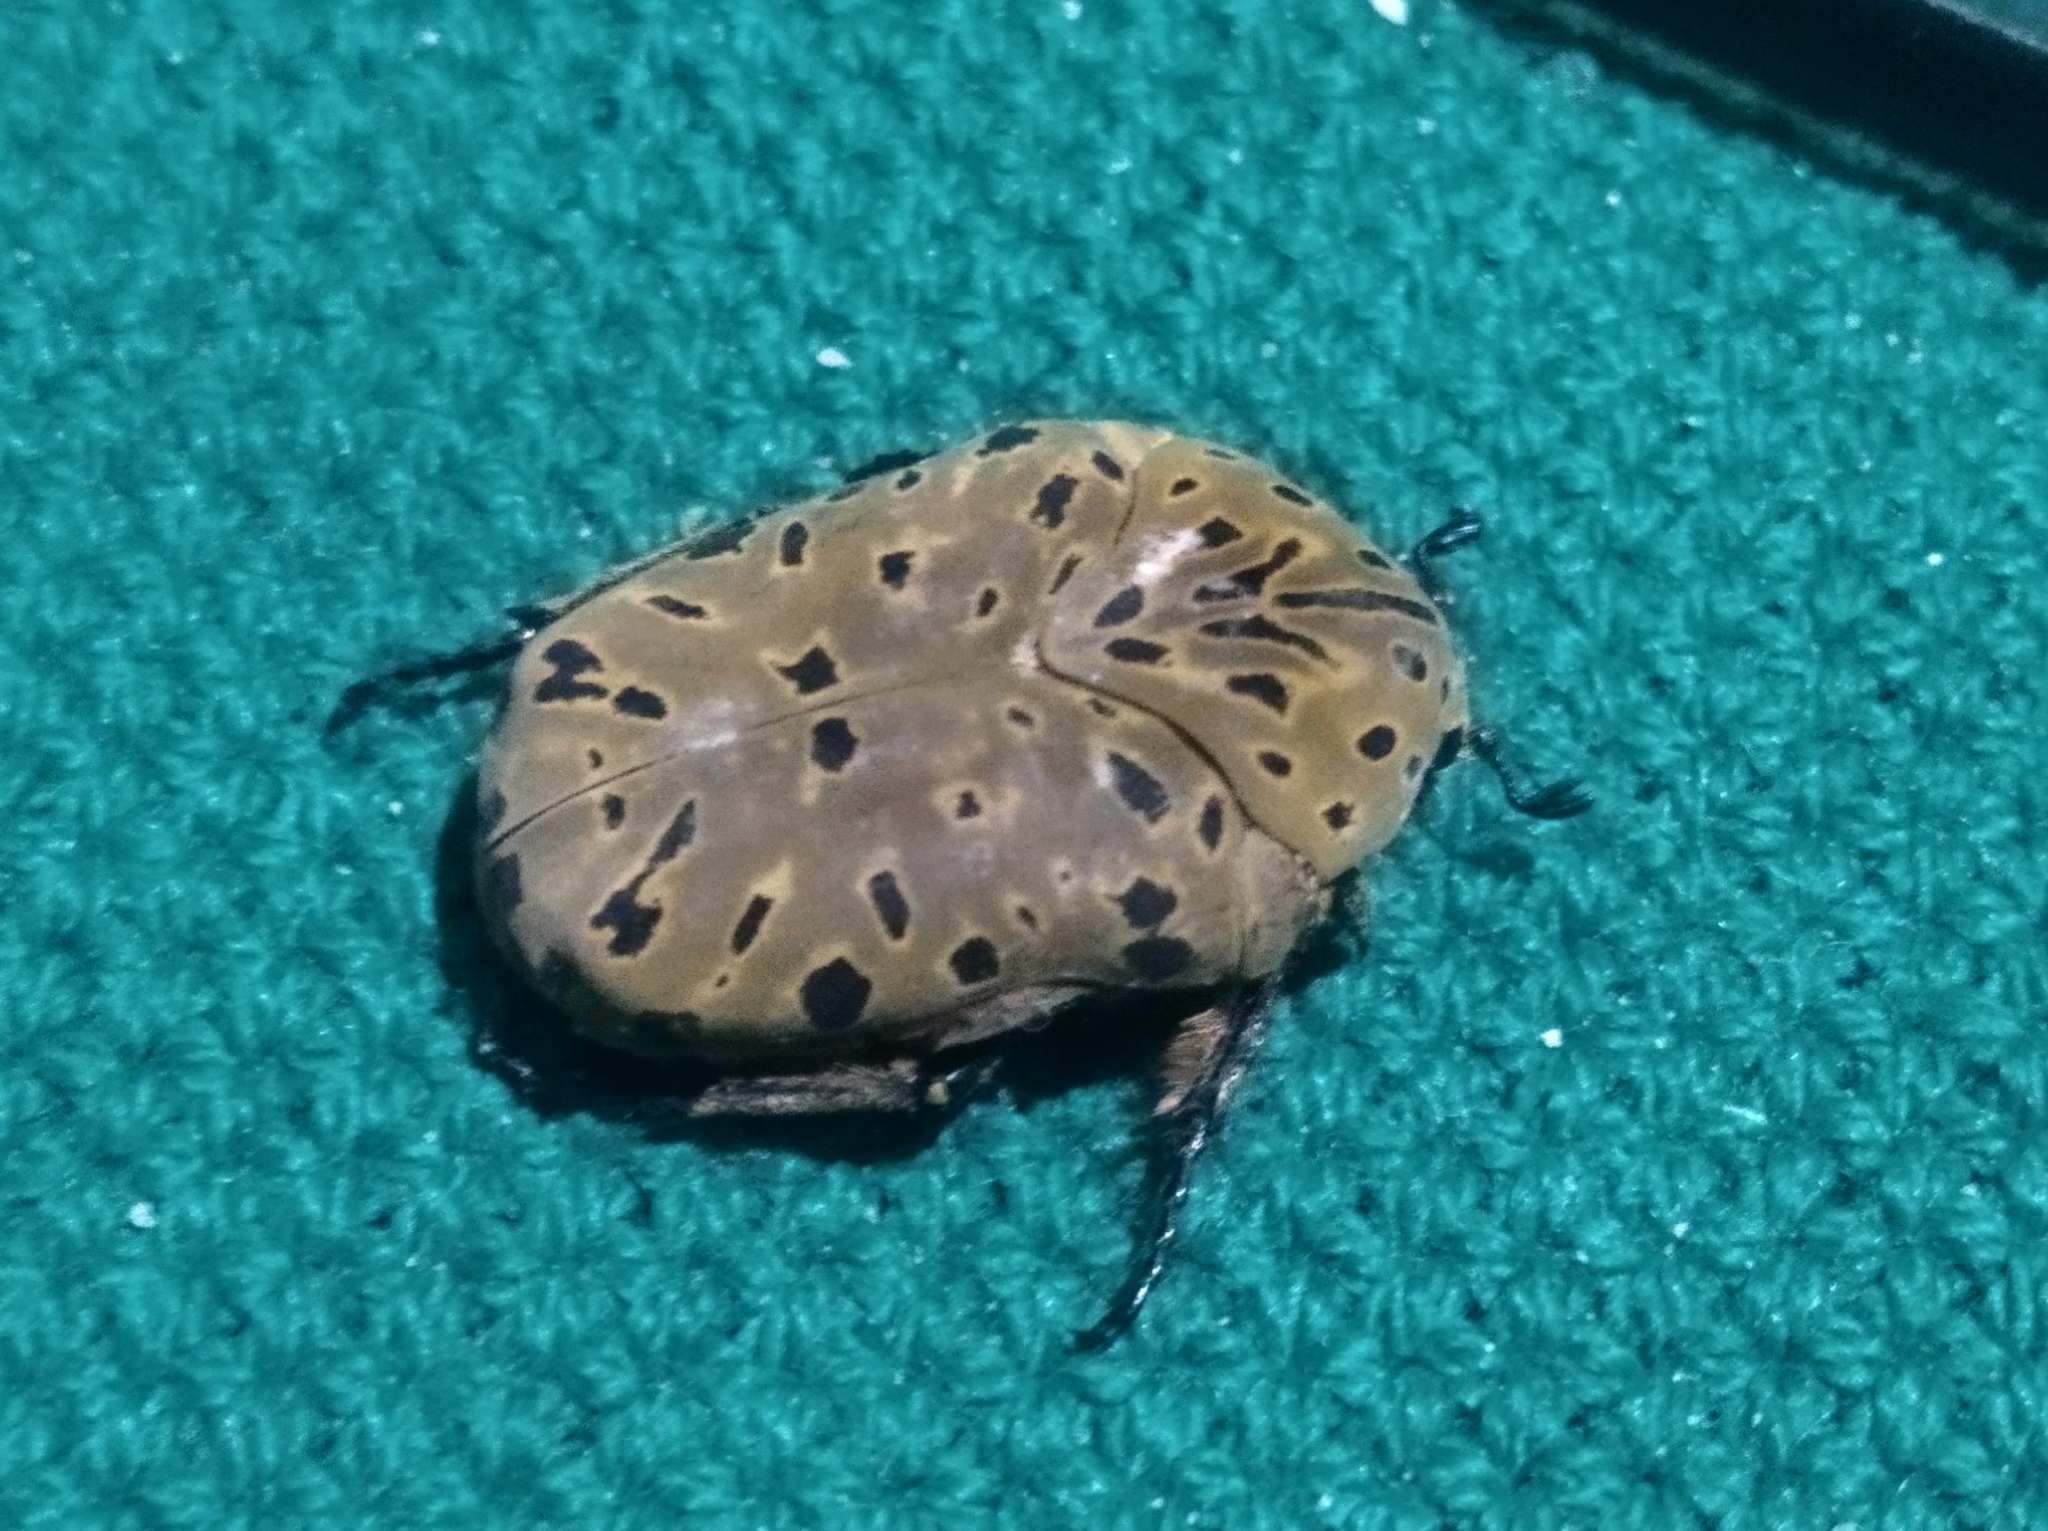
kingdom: Animalia
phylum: Arthropoda
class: Insecta
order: Coleoptera
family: Scarabaeidae
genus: Gymnetis
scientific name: Gymnetis pantherina
